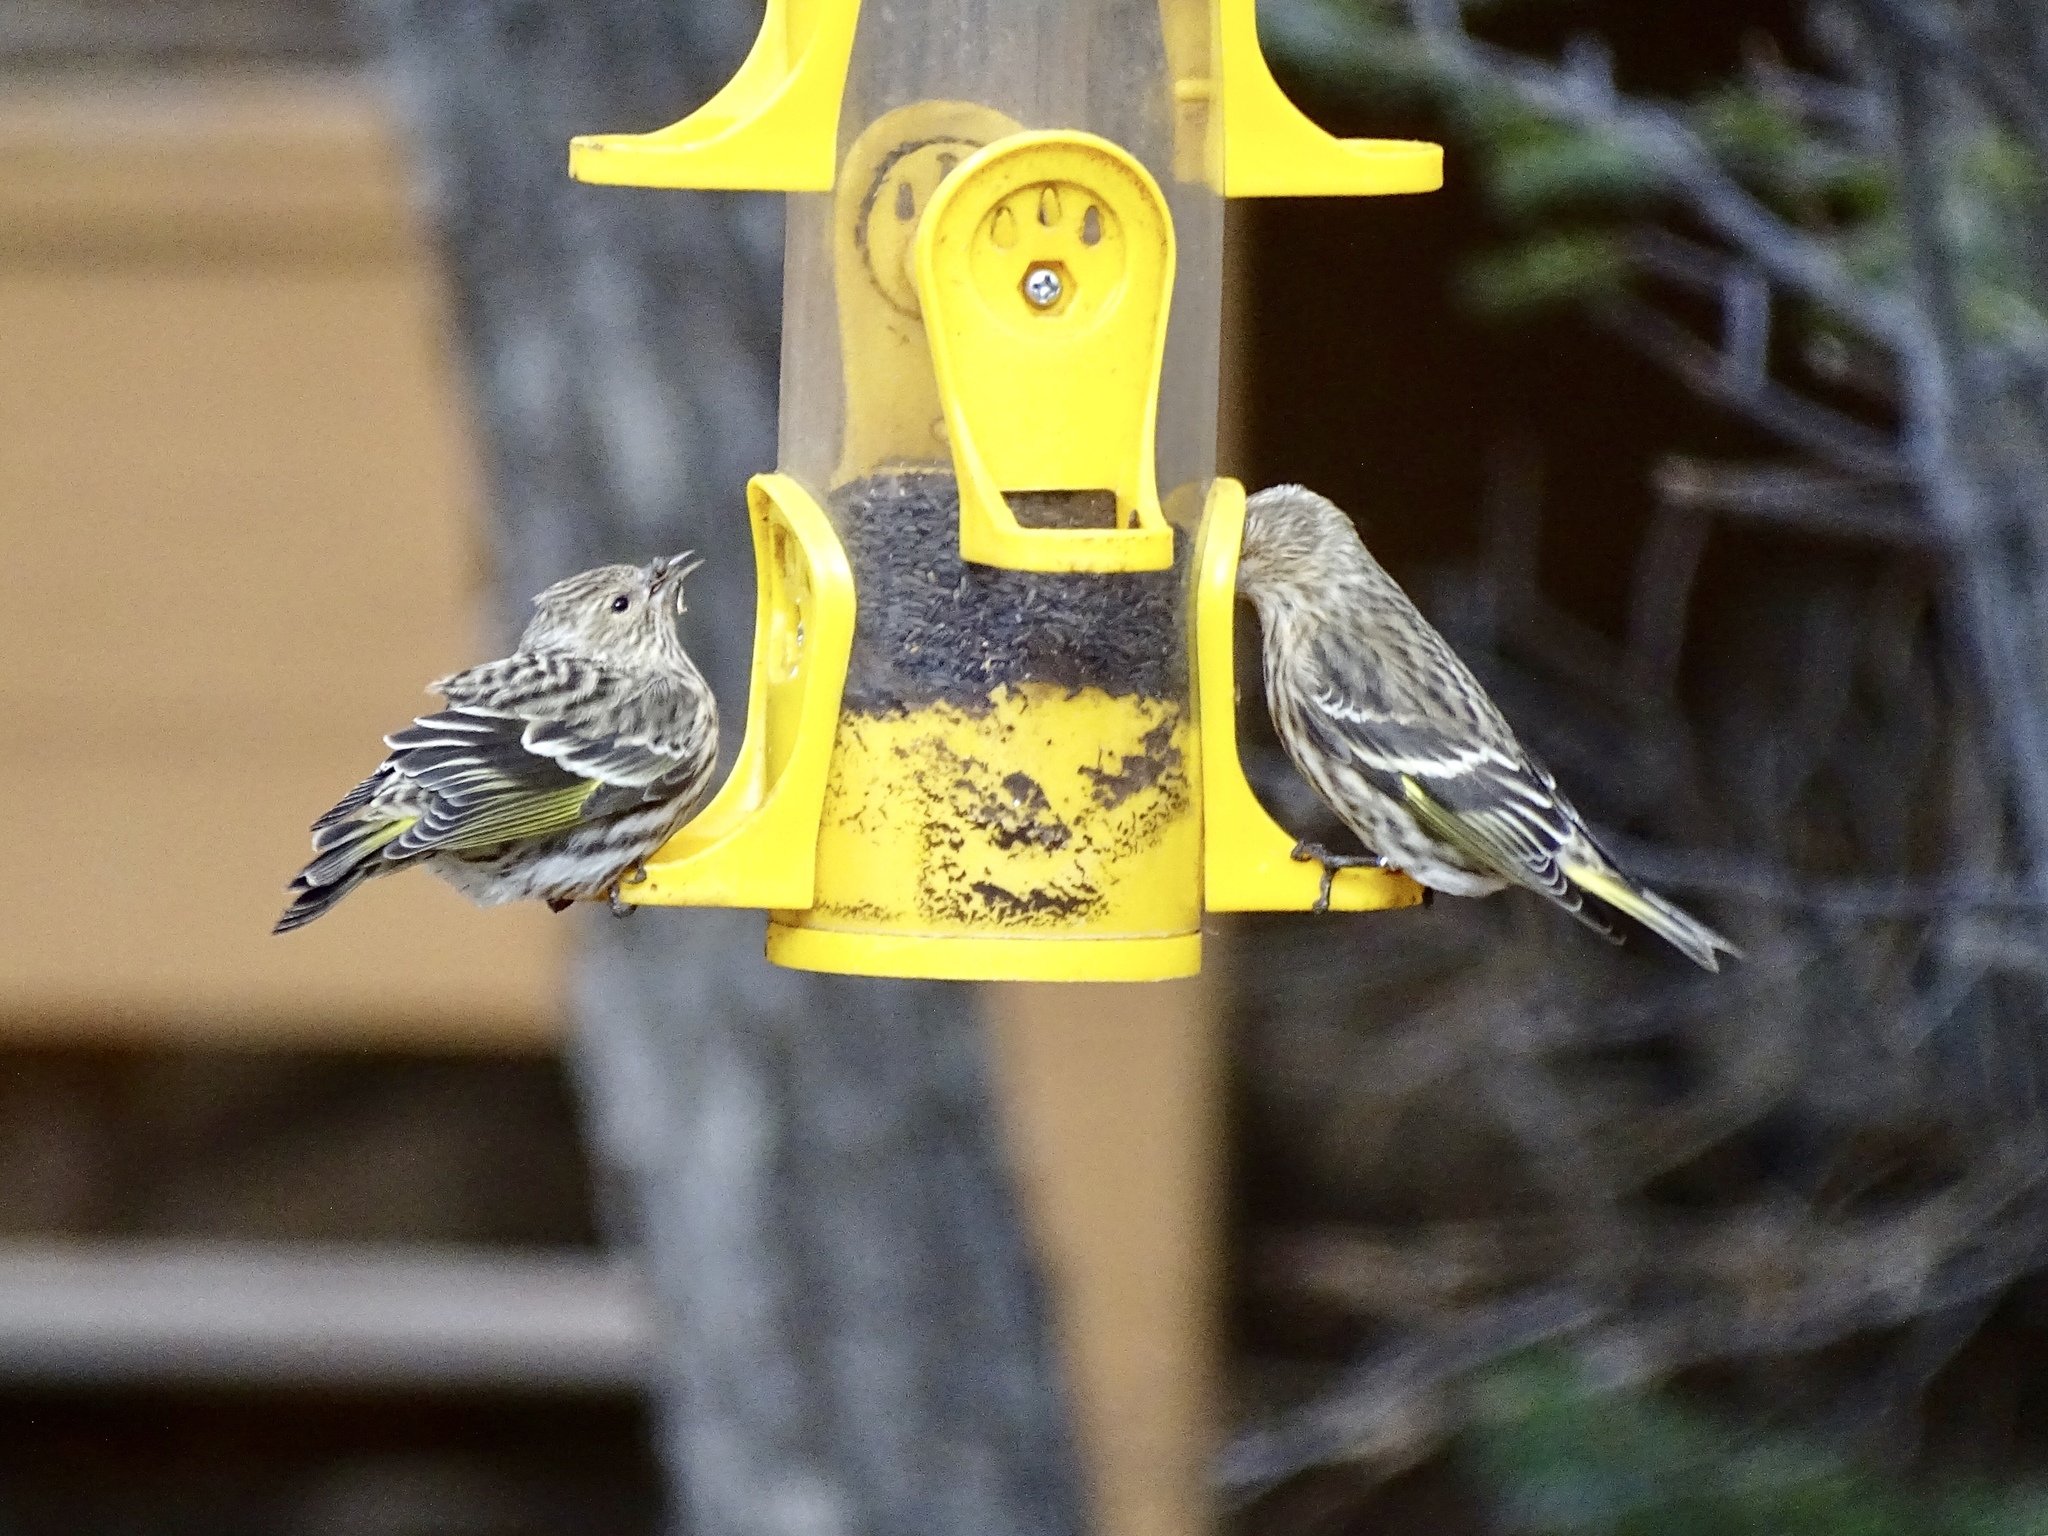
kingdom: Animalia
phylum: Chordata
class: Aves
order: Passeriformes
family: Fringillidae
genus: Spinus
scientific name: Spinus pinus
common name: Pine siskin
